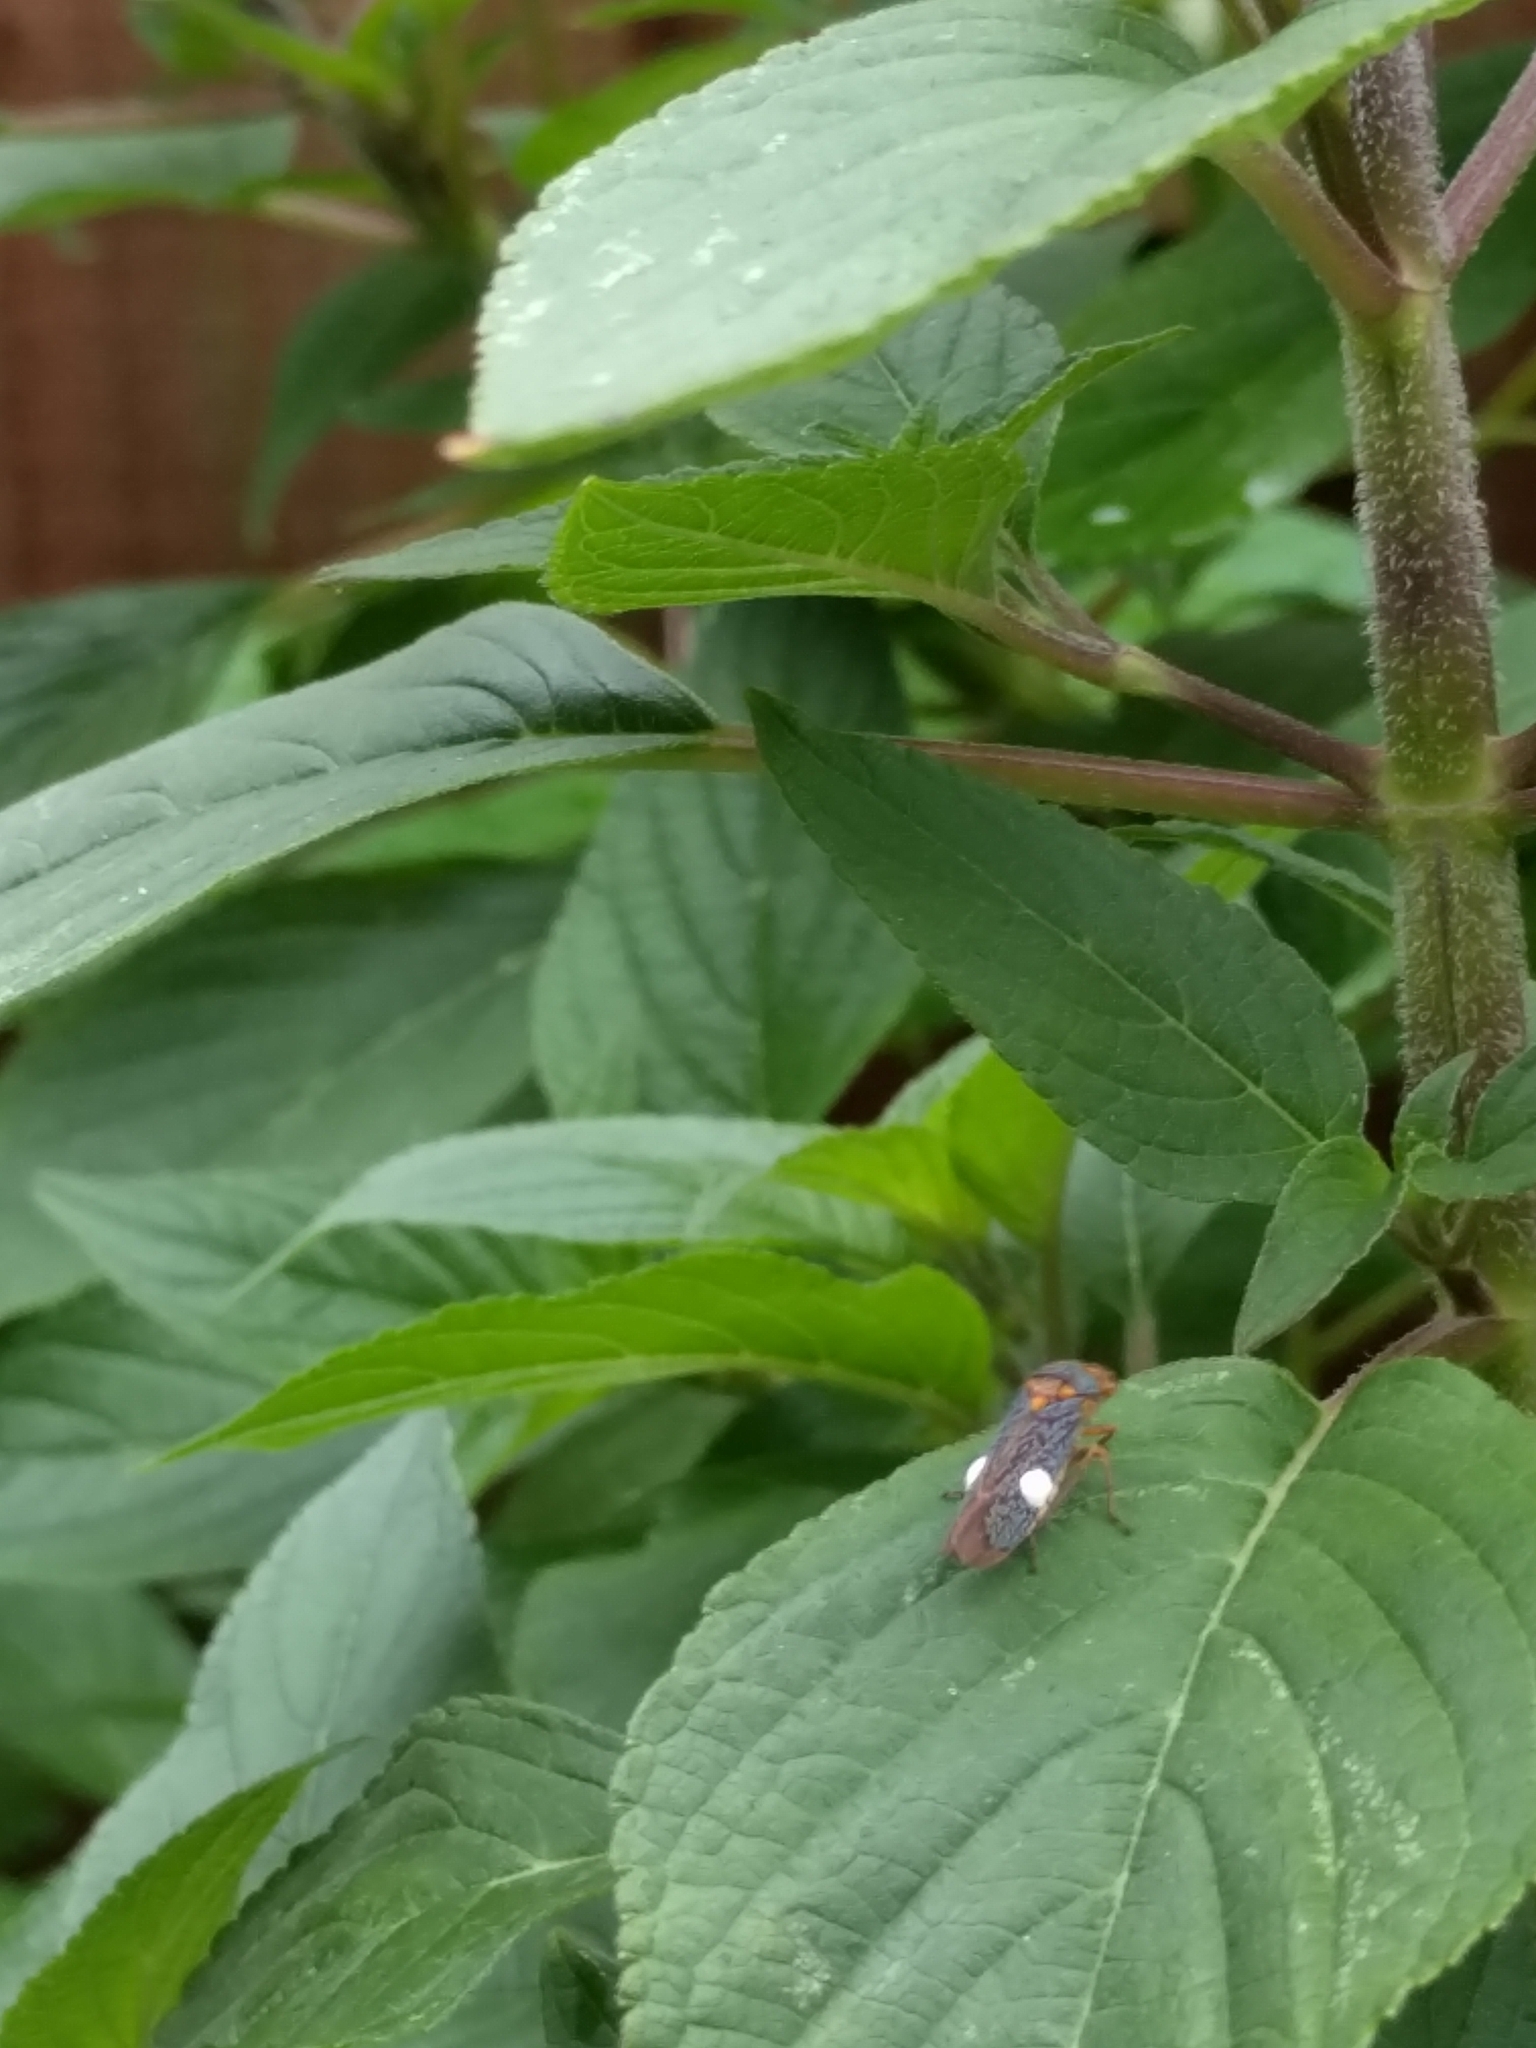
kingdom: Animalia
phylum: Arthropoda
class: Insecta
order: Hemiptera
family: Cicadellidae
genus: Oncometopia
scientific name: Oncometopia orbona
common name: Broad-headed sharpshooter
